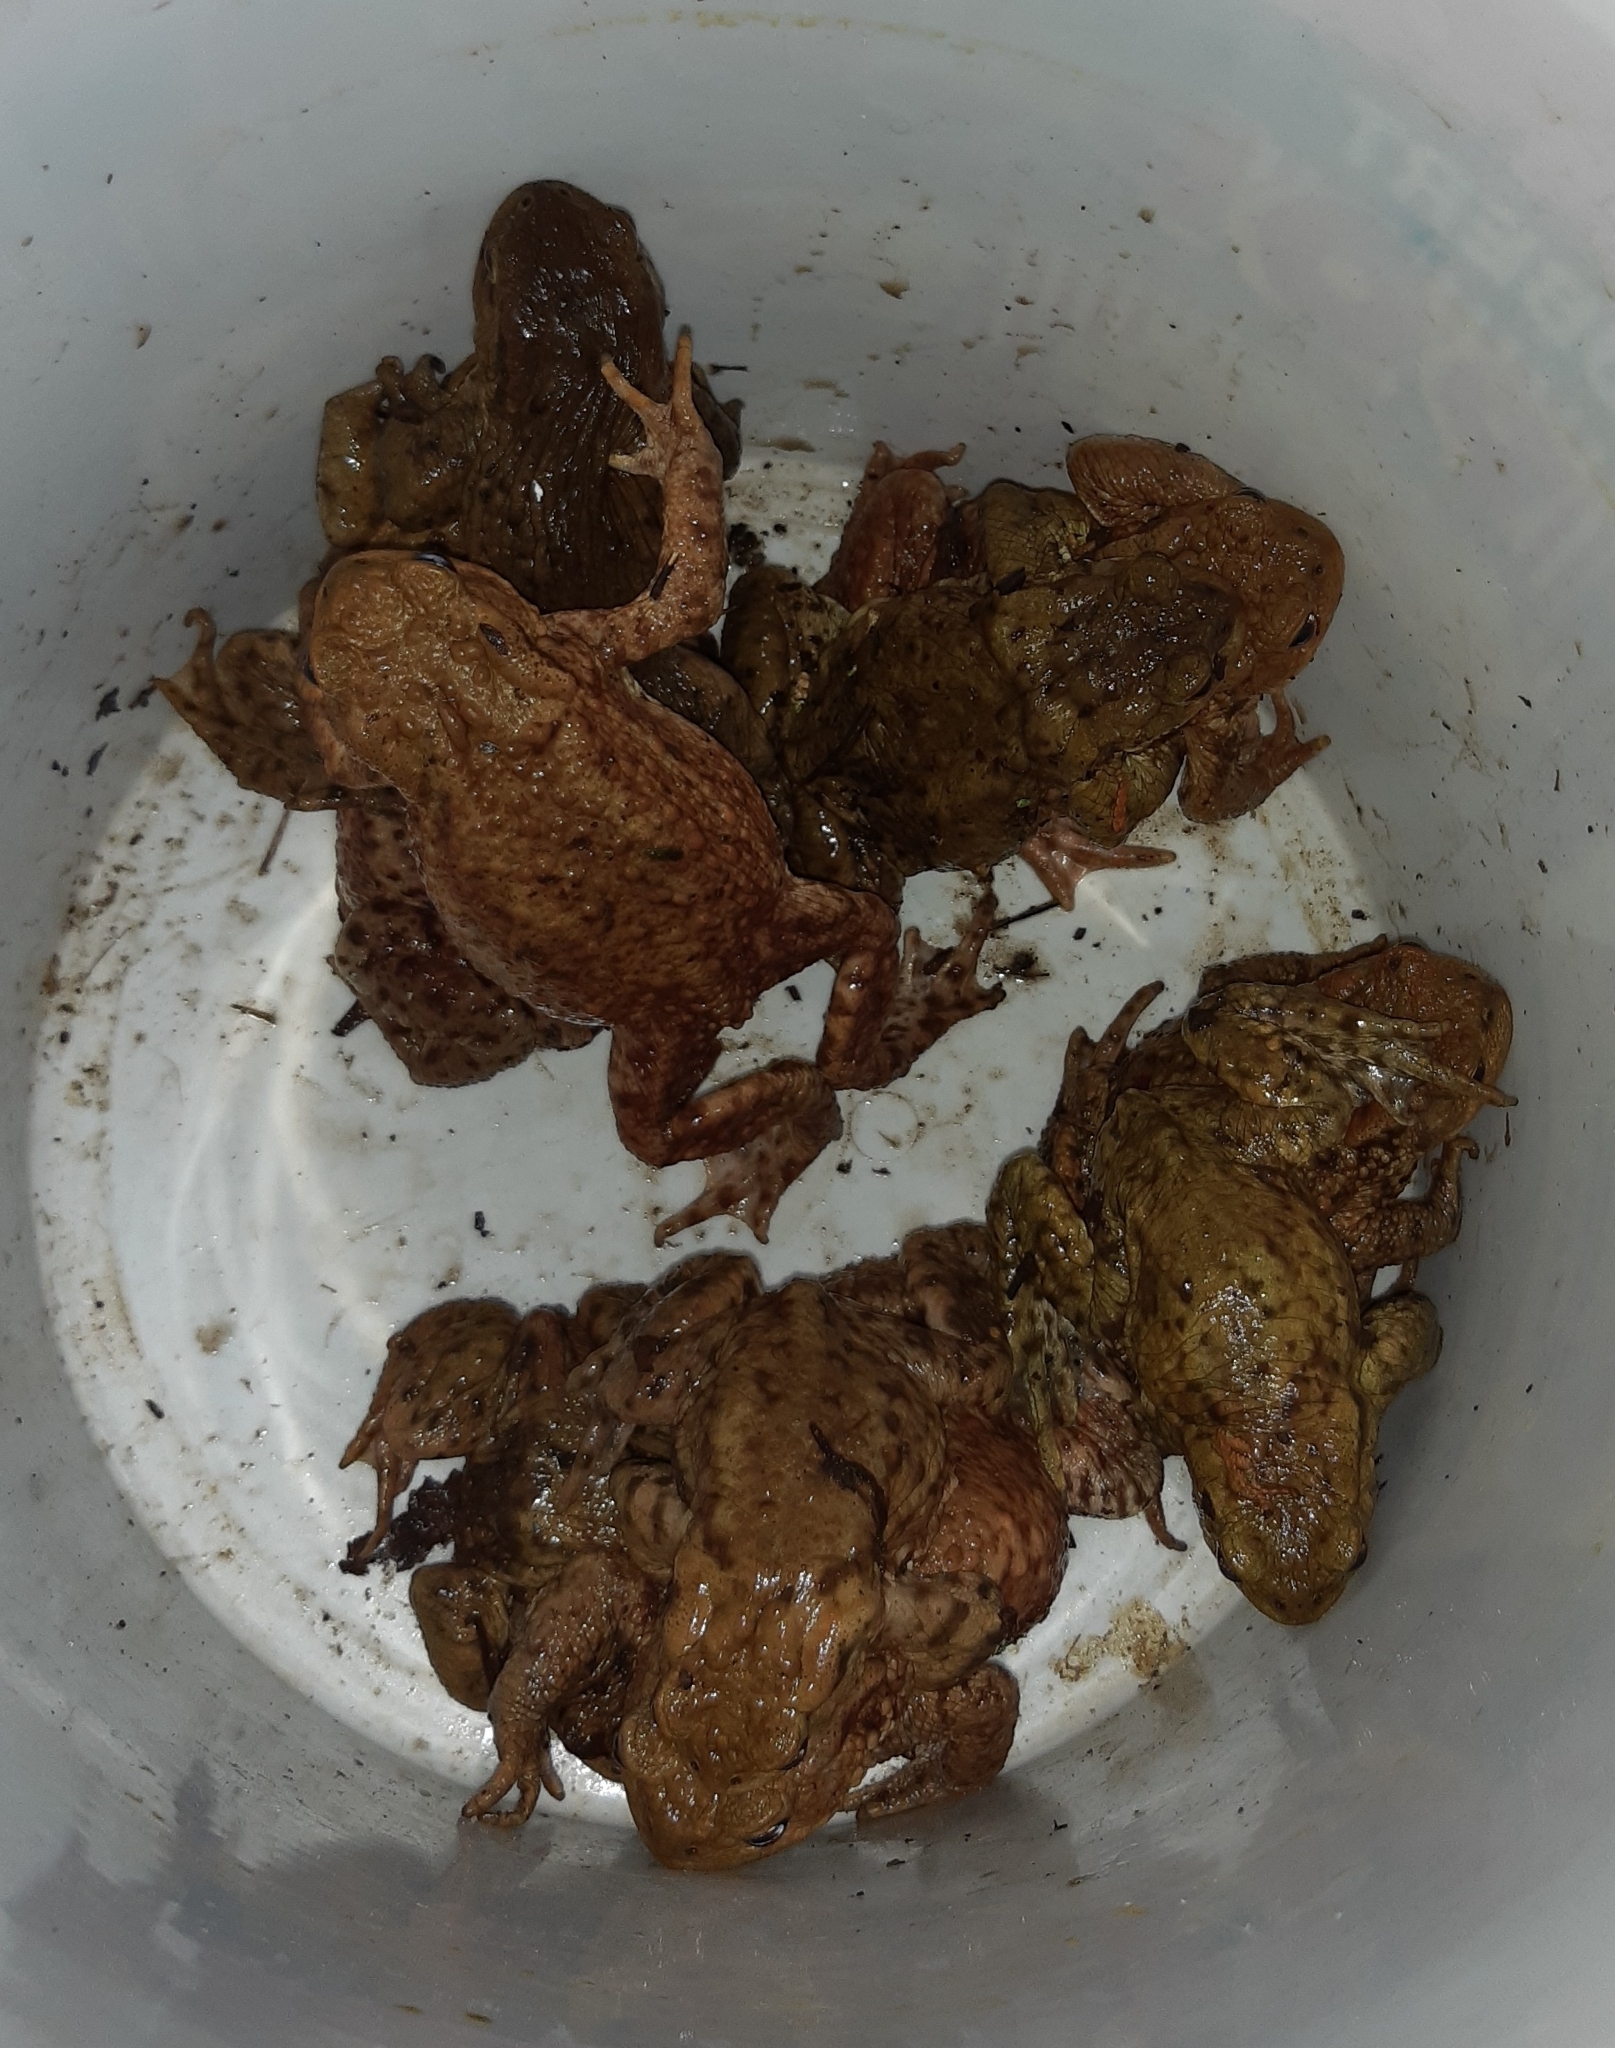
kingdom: Animalia
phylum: Chordata
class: Amphibia
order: Anura
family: Bufonidae
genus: Bufo
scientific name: Bufo bufo
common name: Common toad
